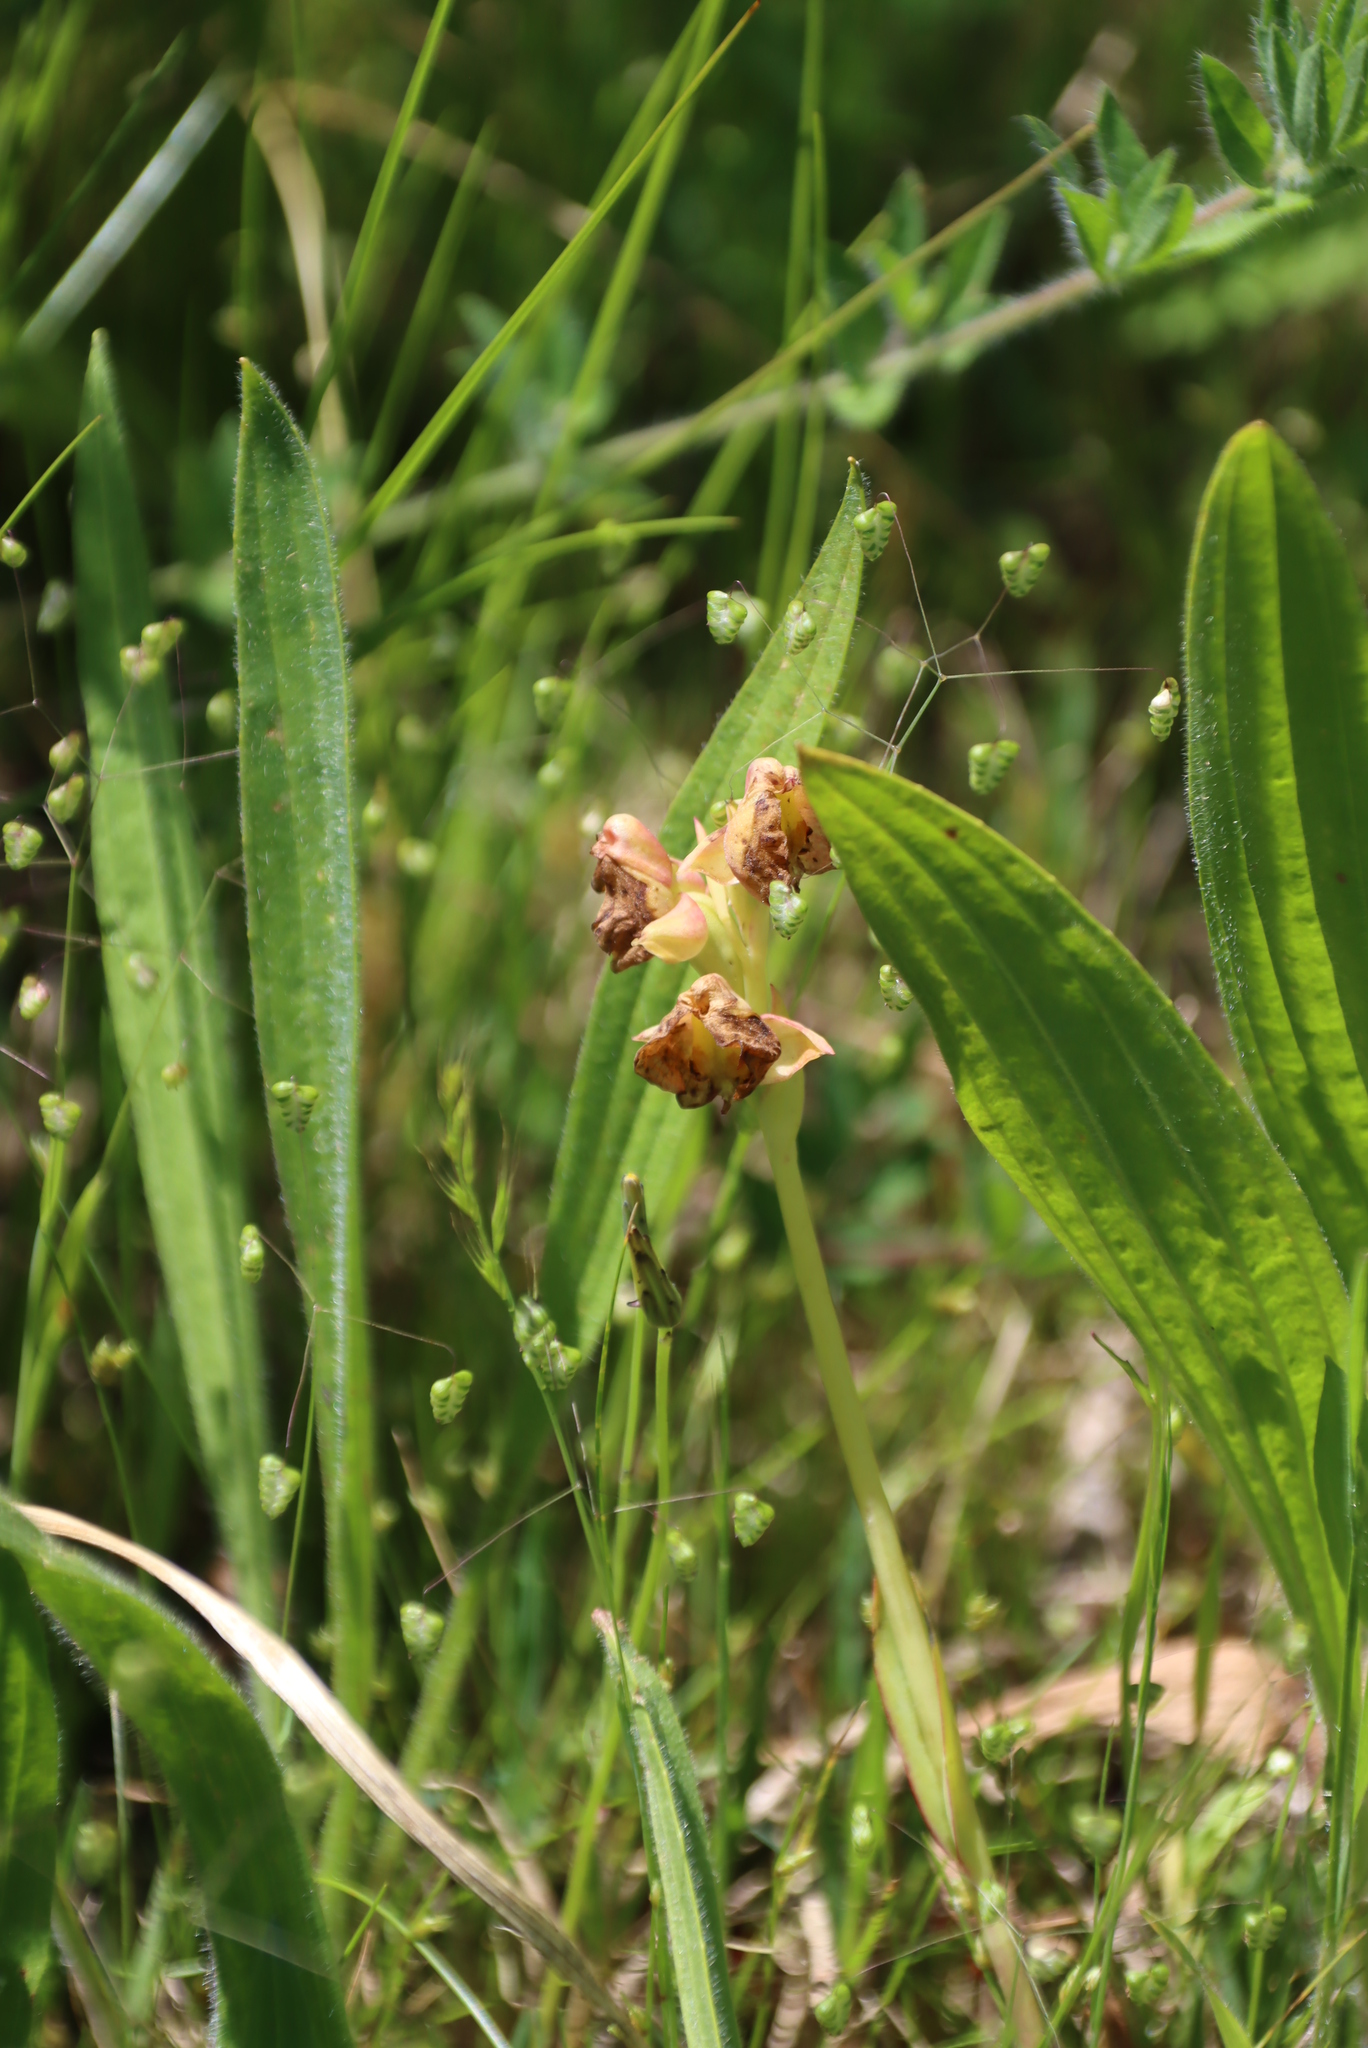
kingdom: Plantae
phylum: Tracheophyta
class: Liliopsida
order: Asparagales
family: Orchidaceae
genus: Pterygodium
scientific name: Pterygodium catholicum
